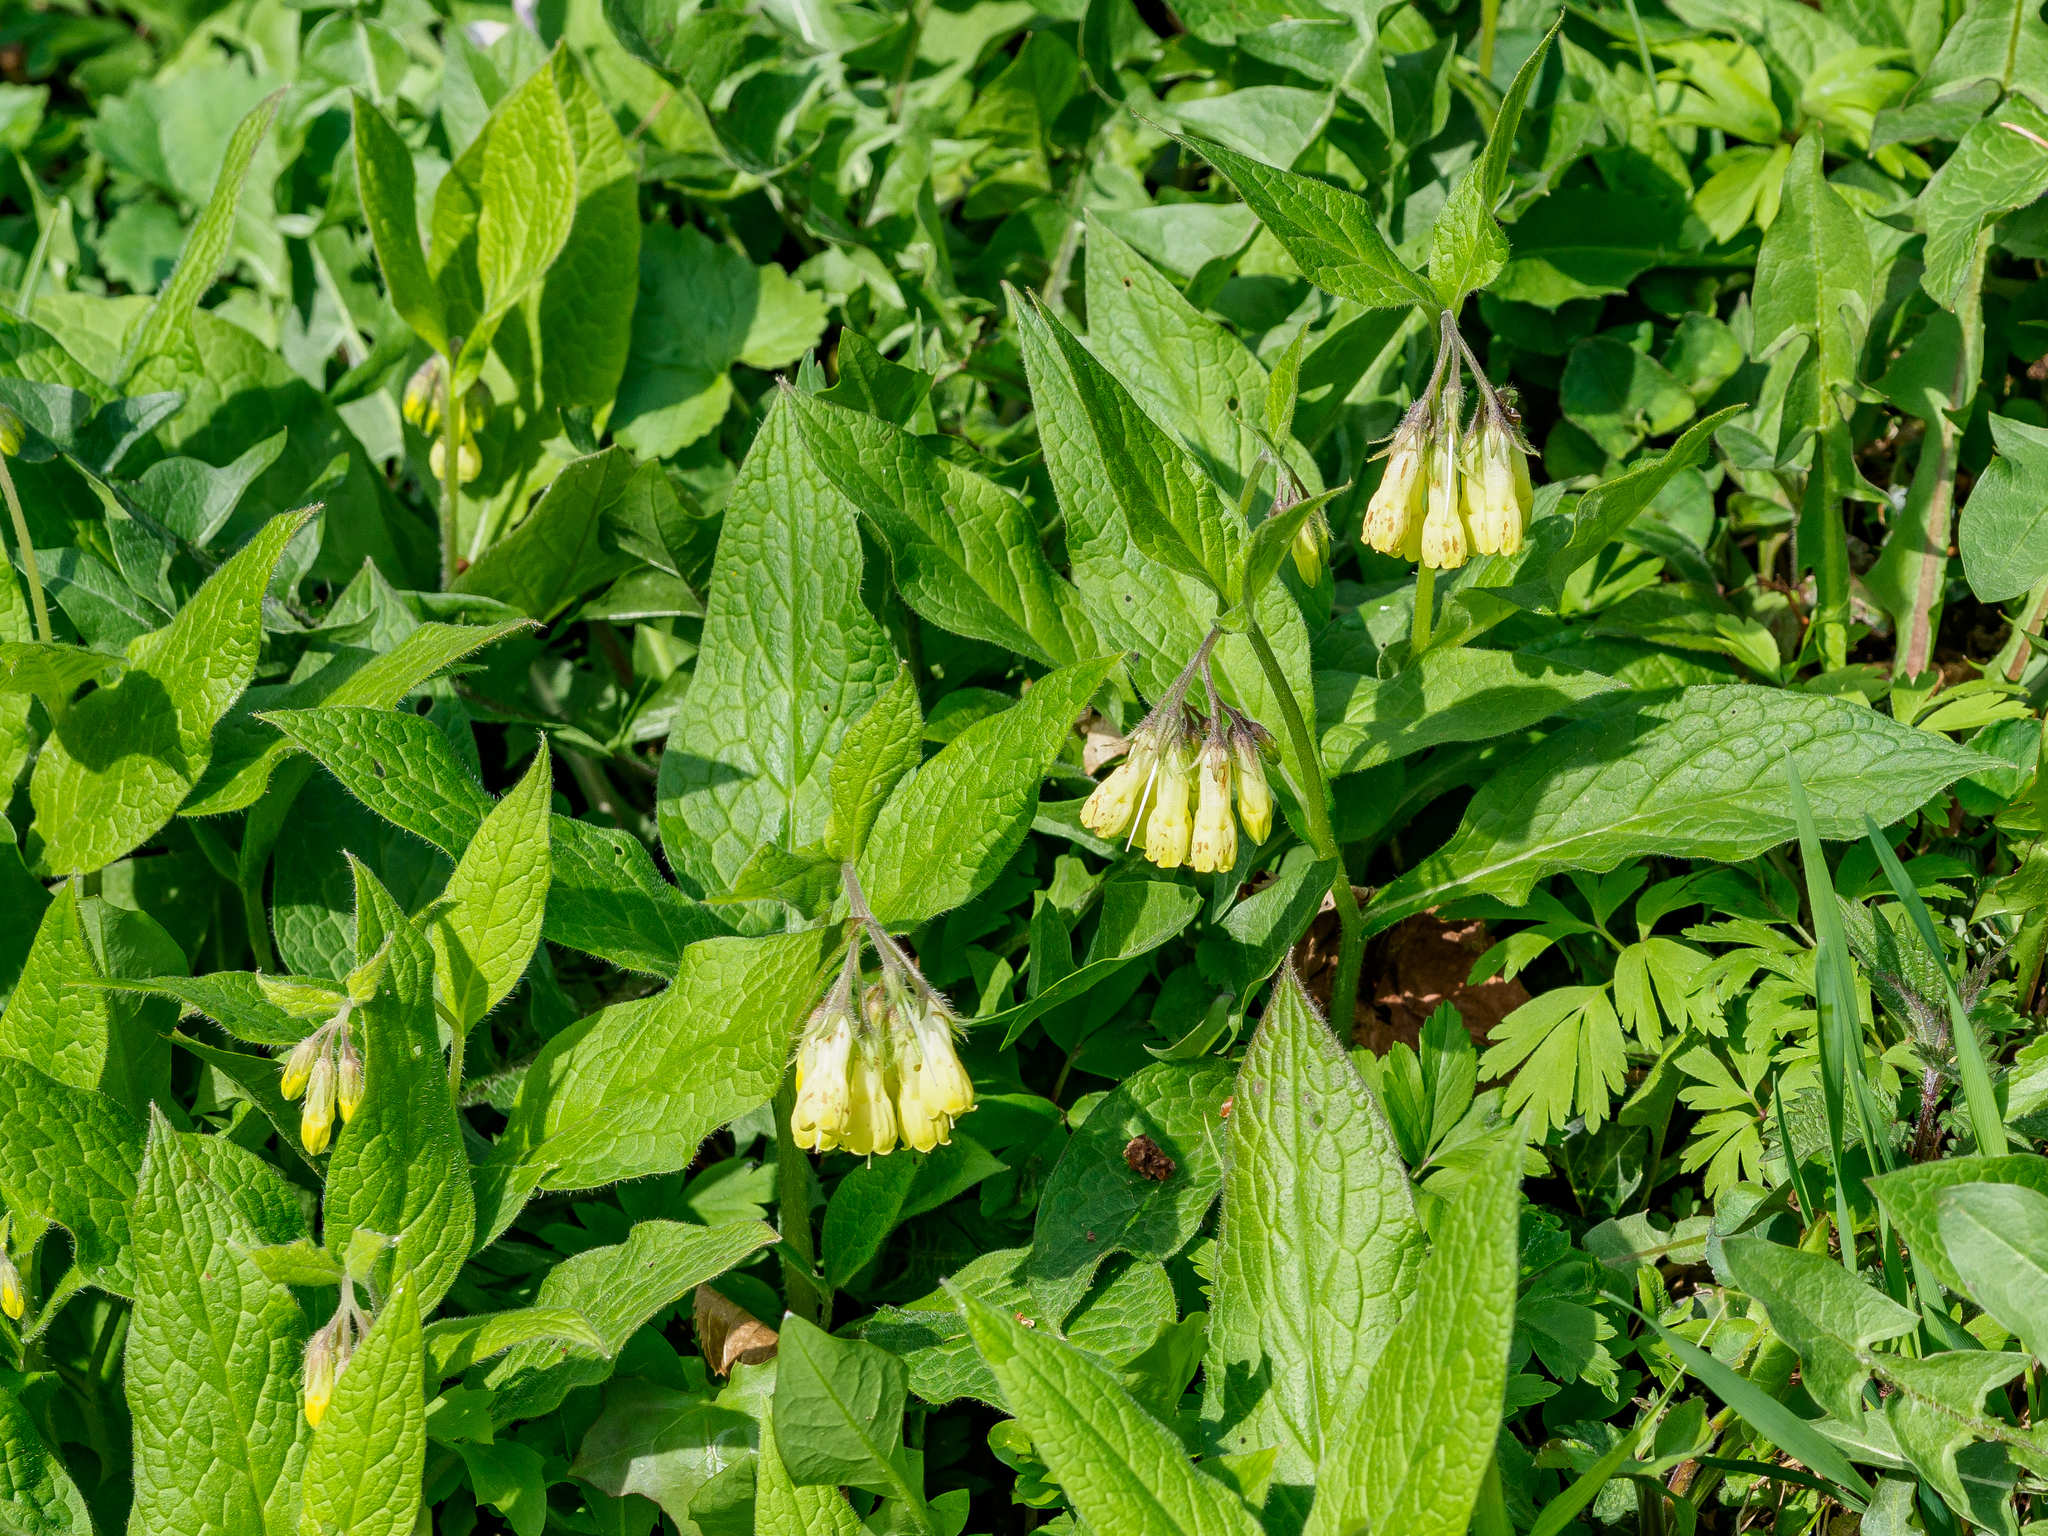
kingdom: Plantae
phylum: Tracheophyta
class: Magnoliopsida
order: Boraginales
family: Boraginaceae
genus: Symphytum
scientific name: Symphytum tuberosum
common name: Tuberous comfrey
